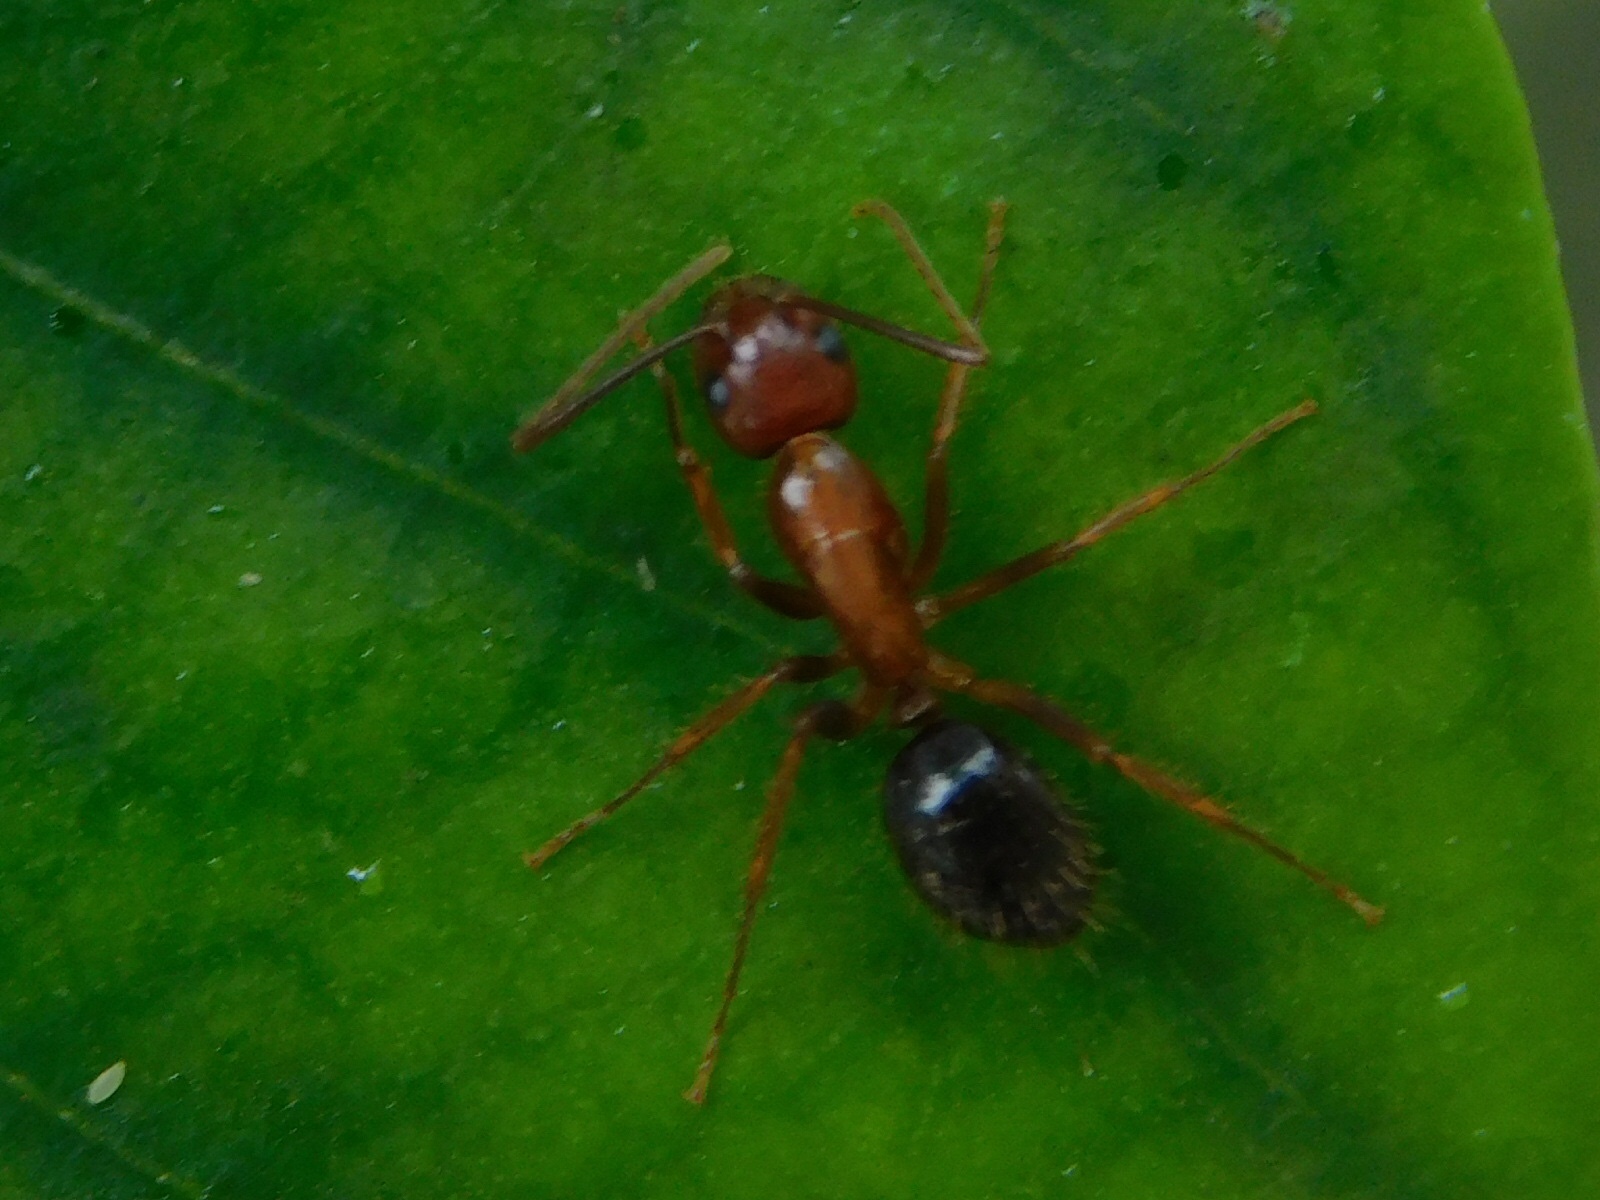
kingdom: Animalia
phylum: Arthropoda
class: Insecta
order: Hymenoptera
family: Formicidae
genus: Camponotus
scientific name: Camponotus floridanus
